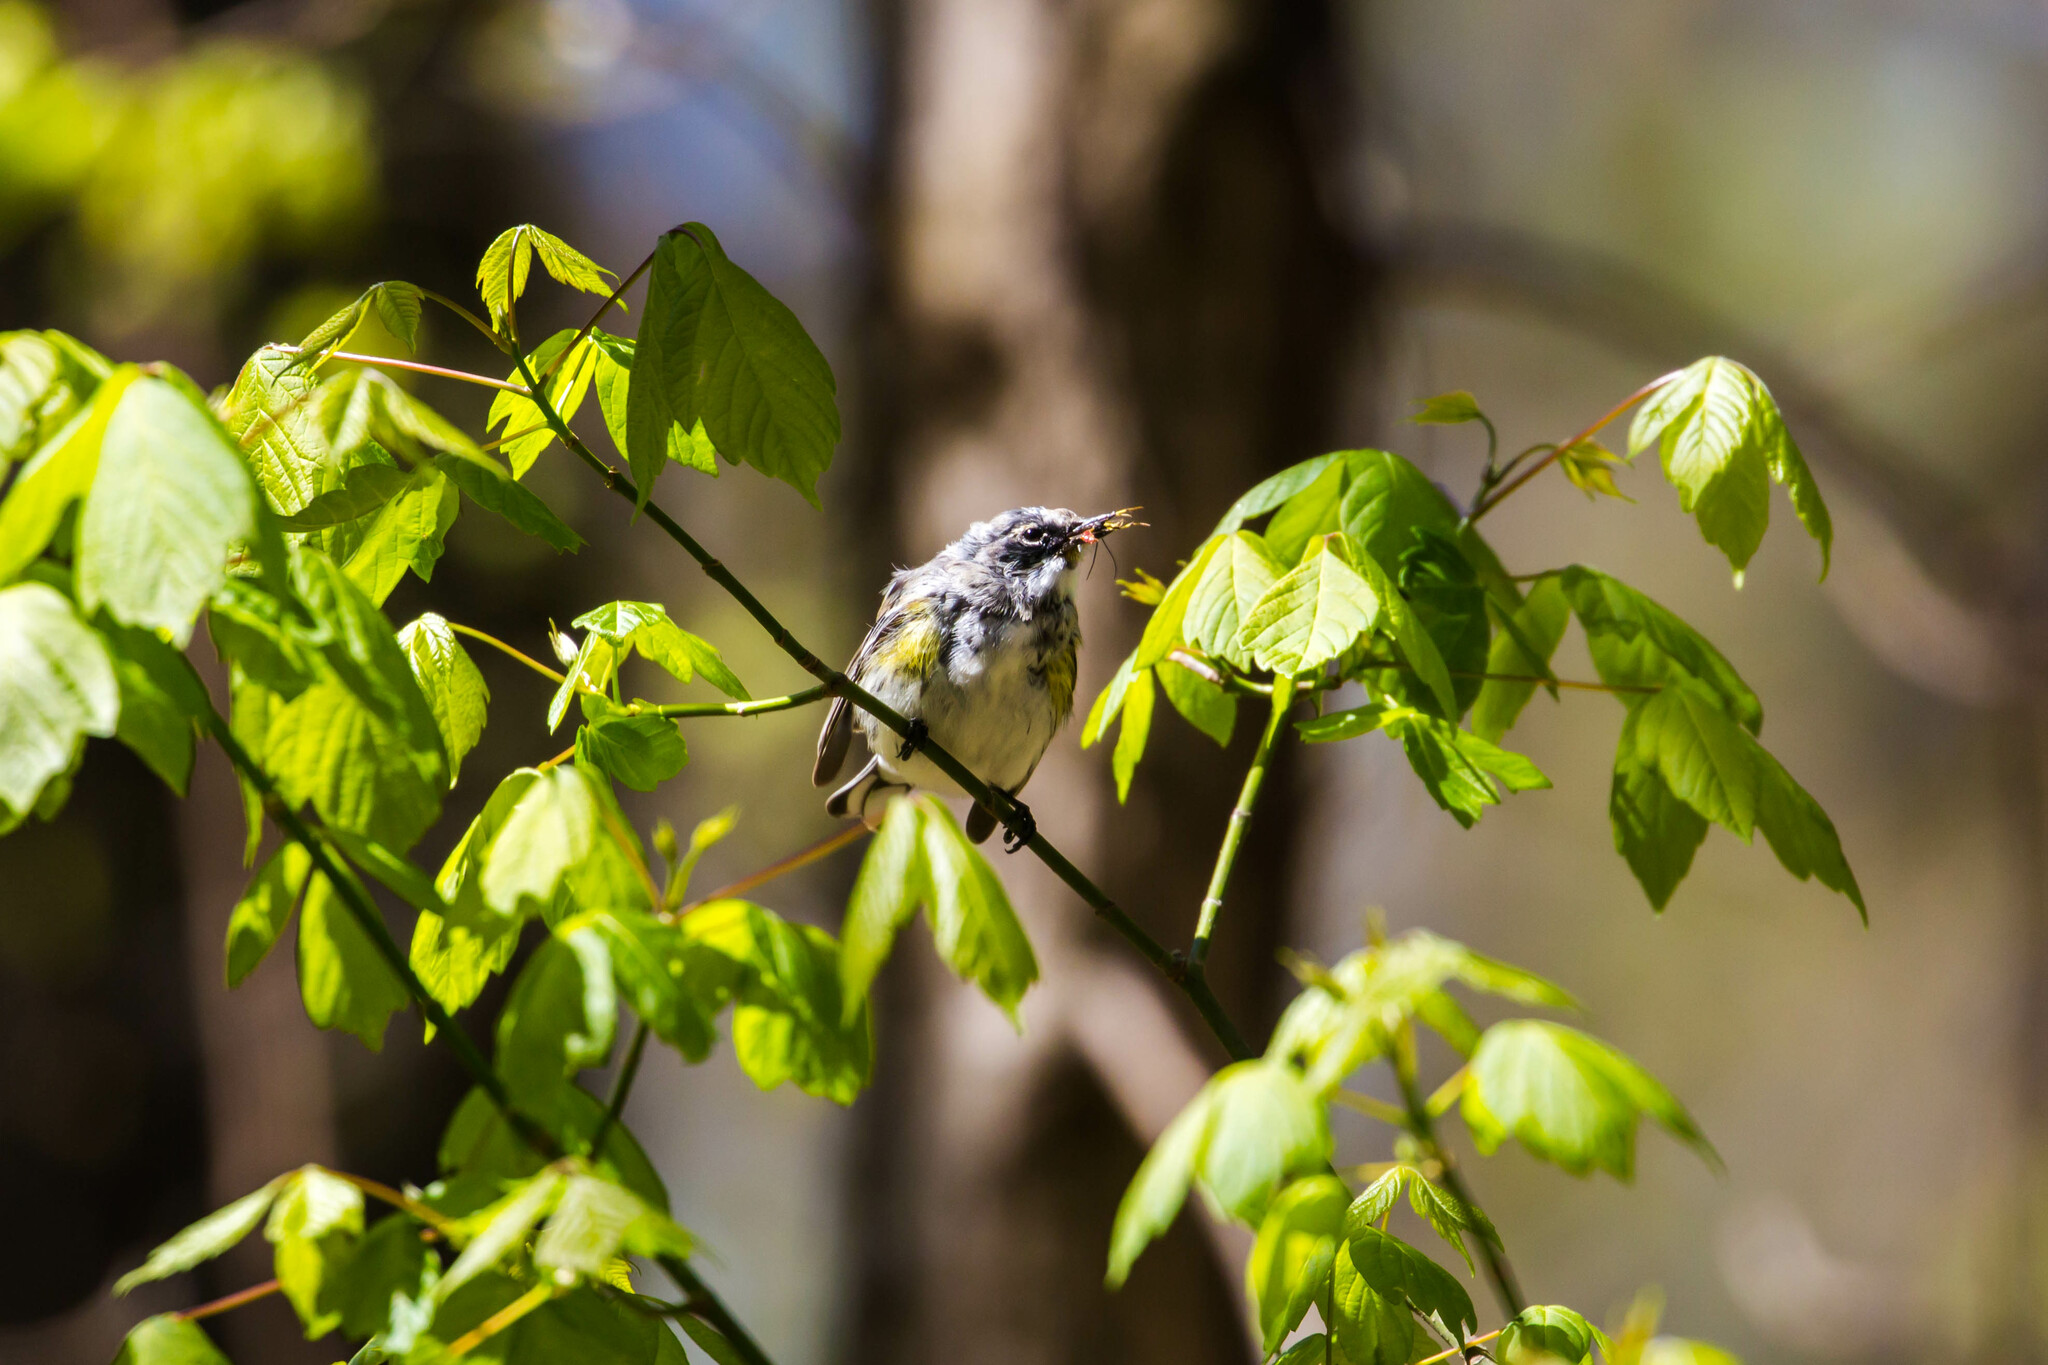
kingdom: Animalia
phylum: Chordata
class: Aves
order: Passeriformes
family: Parulidae
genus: Setophaga
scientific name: Setophaga coronata
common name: Myrtle warbler
